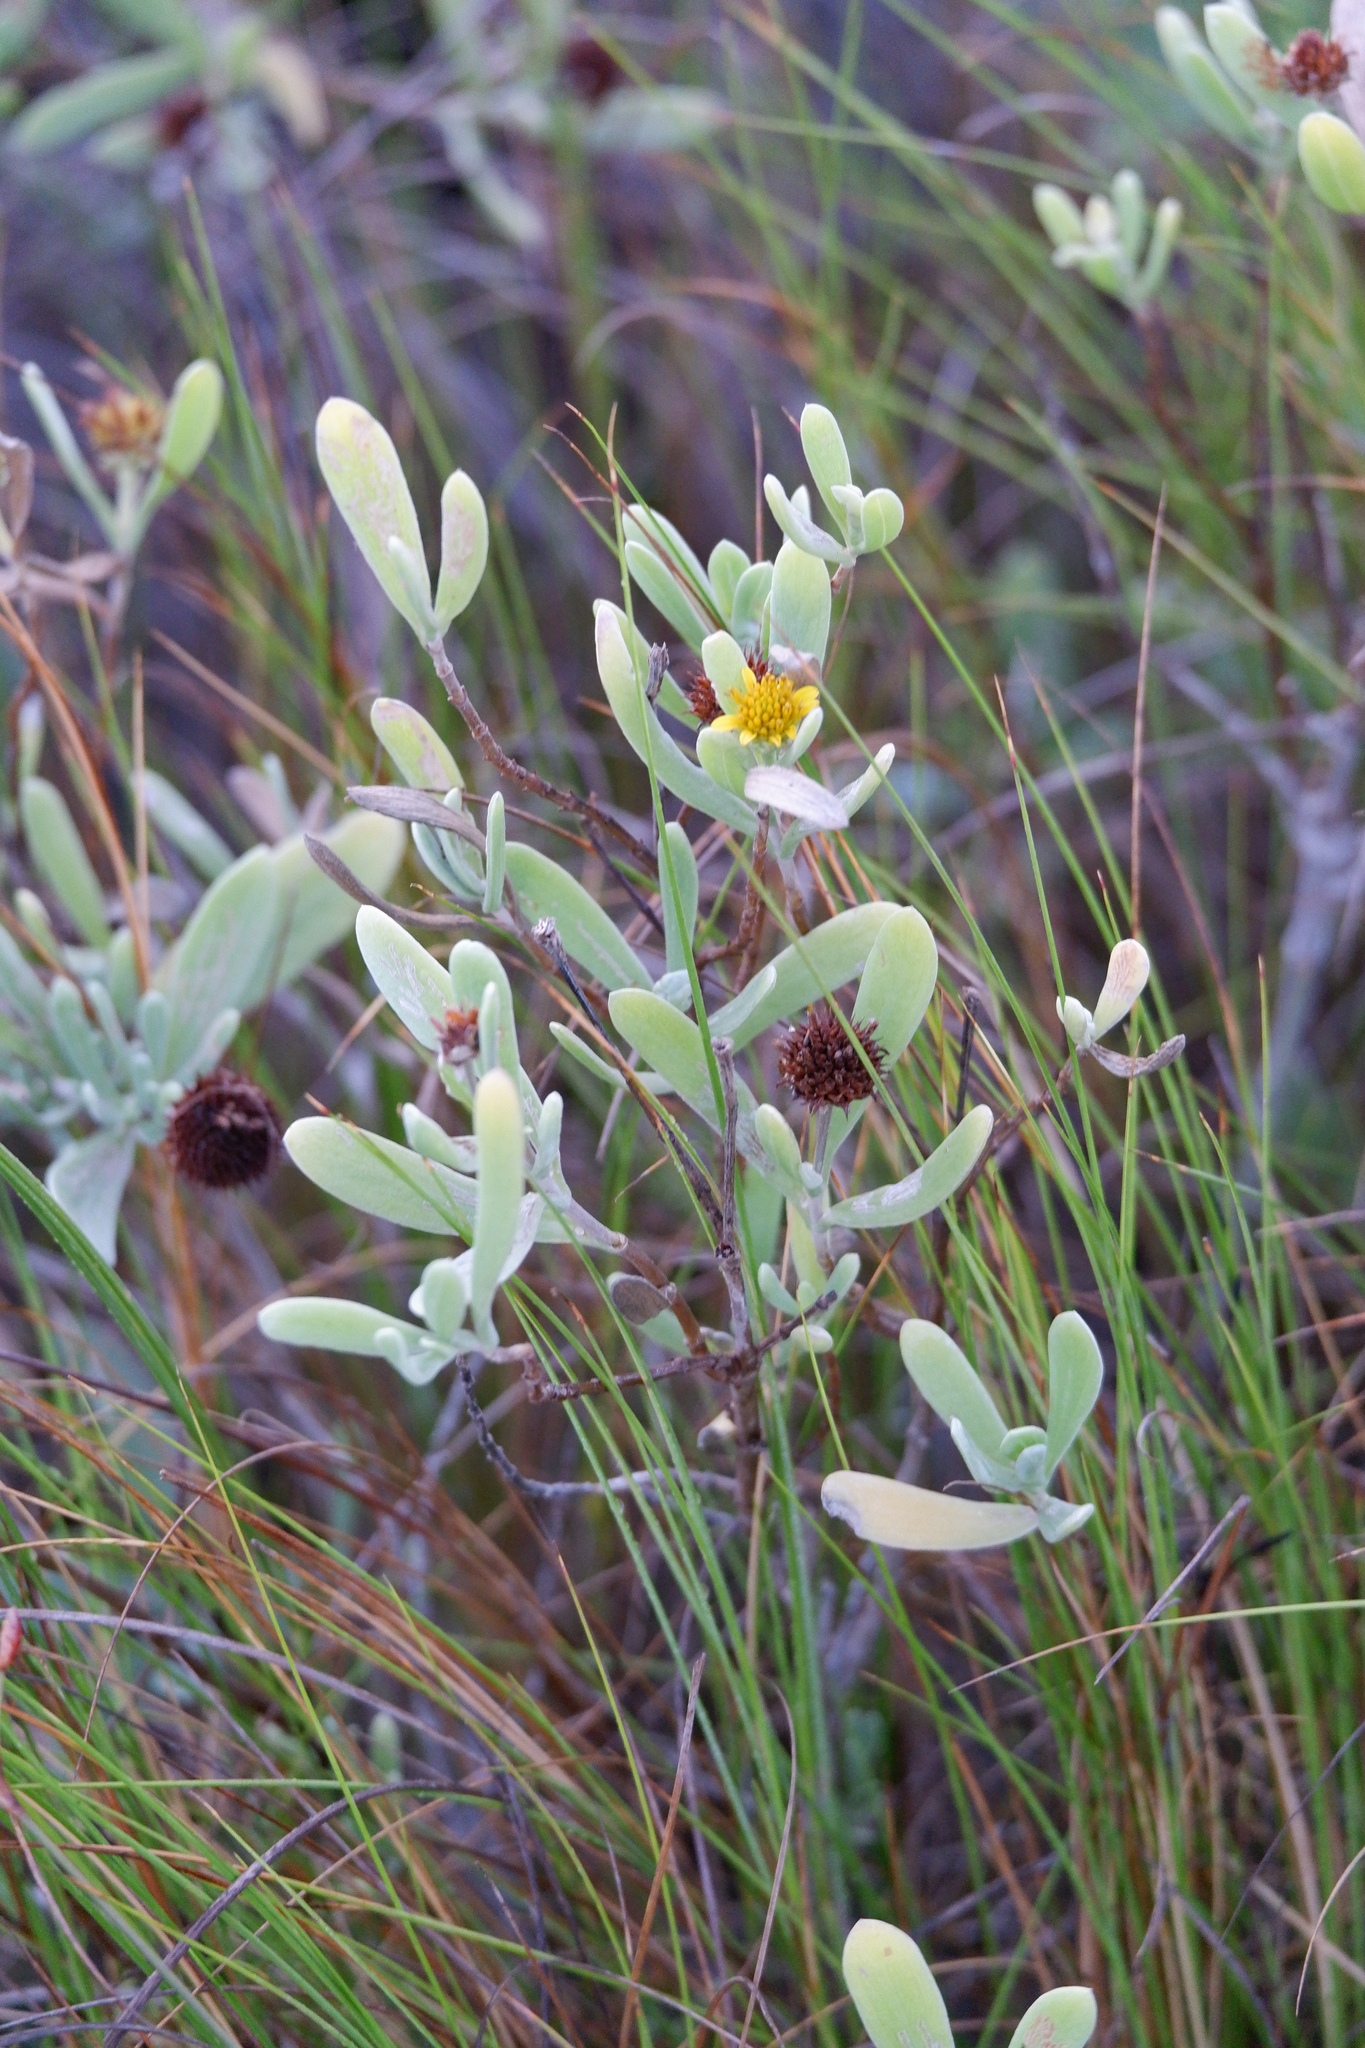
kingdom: Plantae
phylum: Tracheophyta
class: Magnoliopsida
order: Asterales
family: Asteraceae
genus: Borrichia
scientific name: Borrichia frutescens
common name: Sea oxeye
